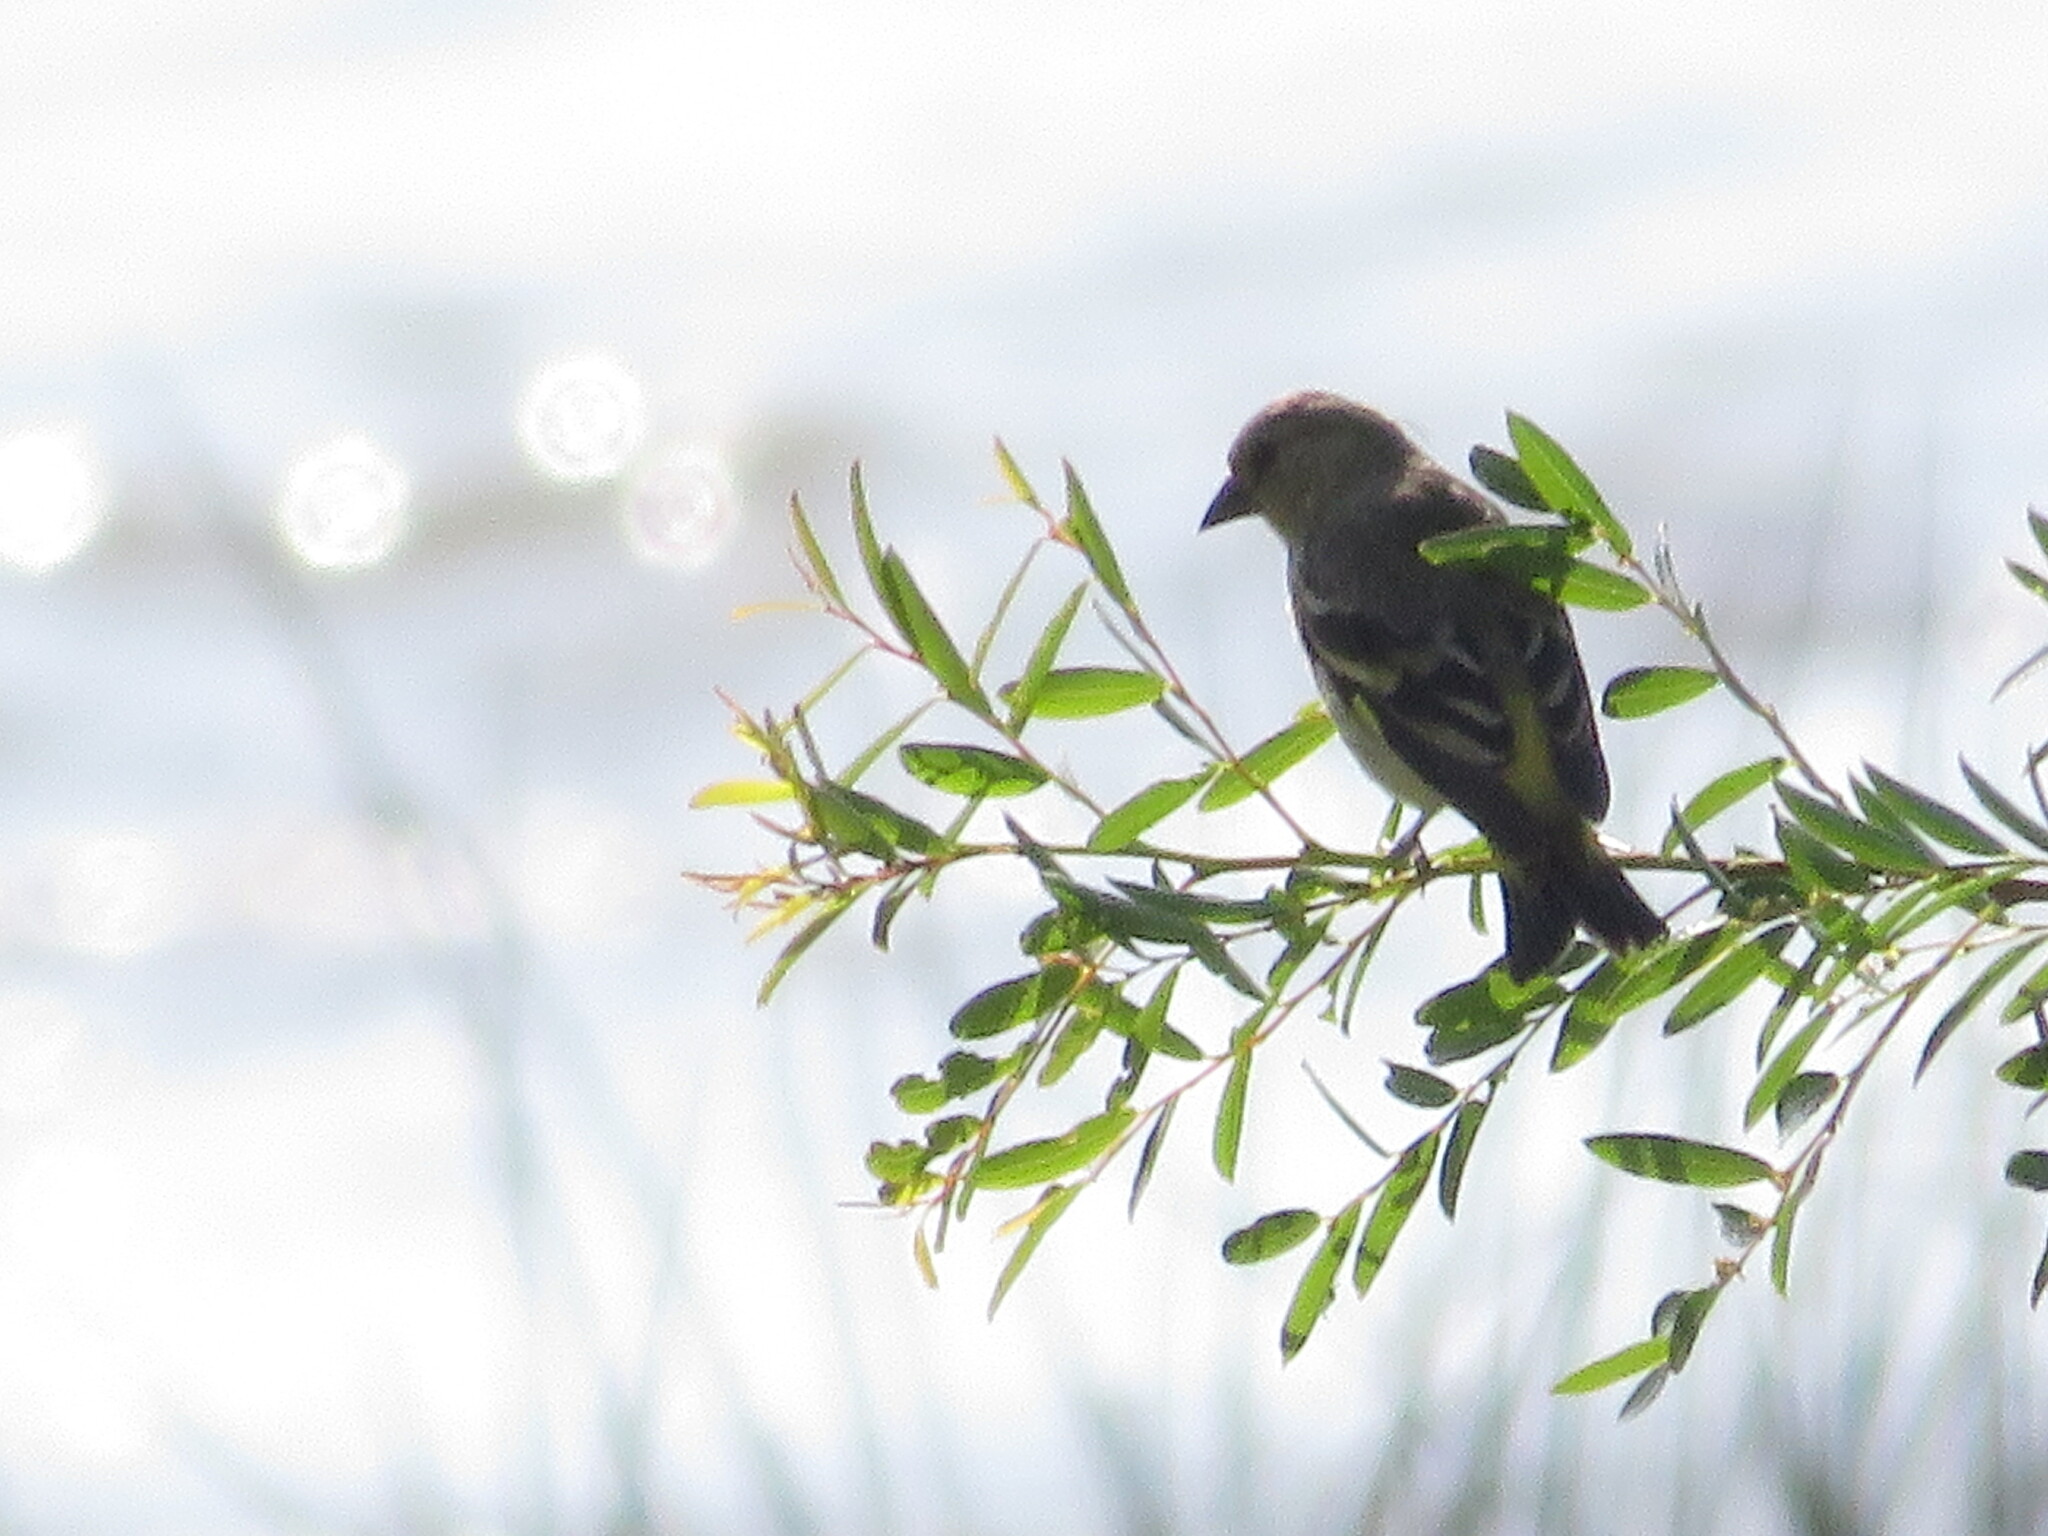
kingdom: Animalia
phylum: Chordata
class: Aves
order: Passeriformes
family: Fringillidae
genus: Spinus
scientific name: Spinus magellanicus
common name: Hooded siskin
